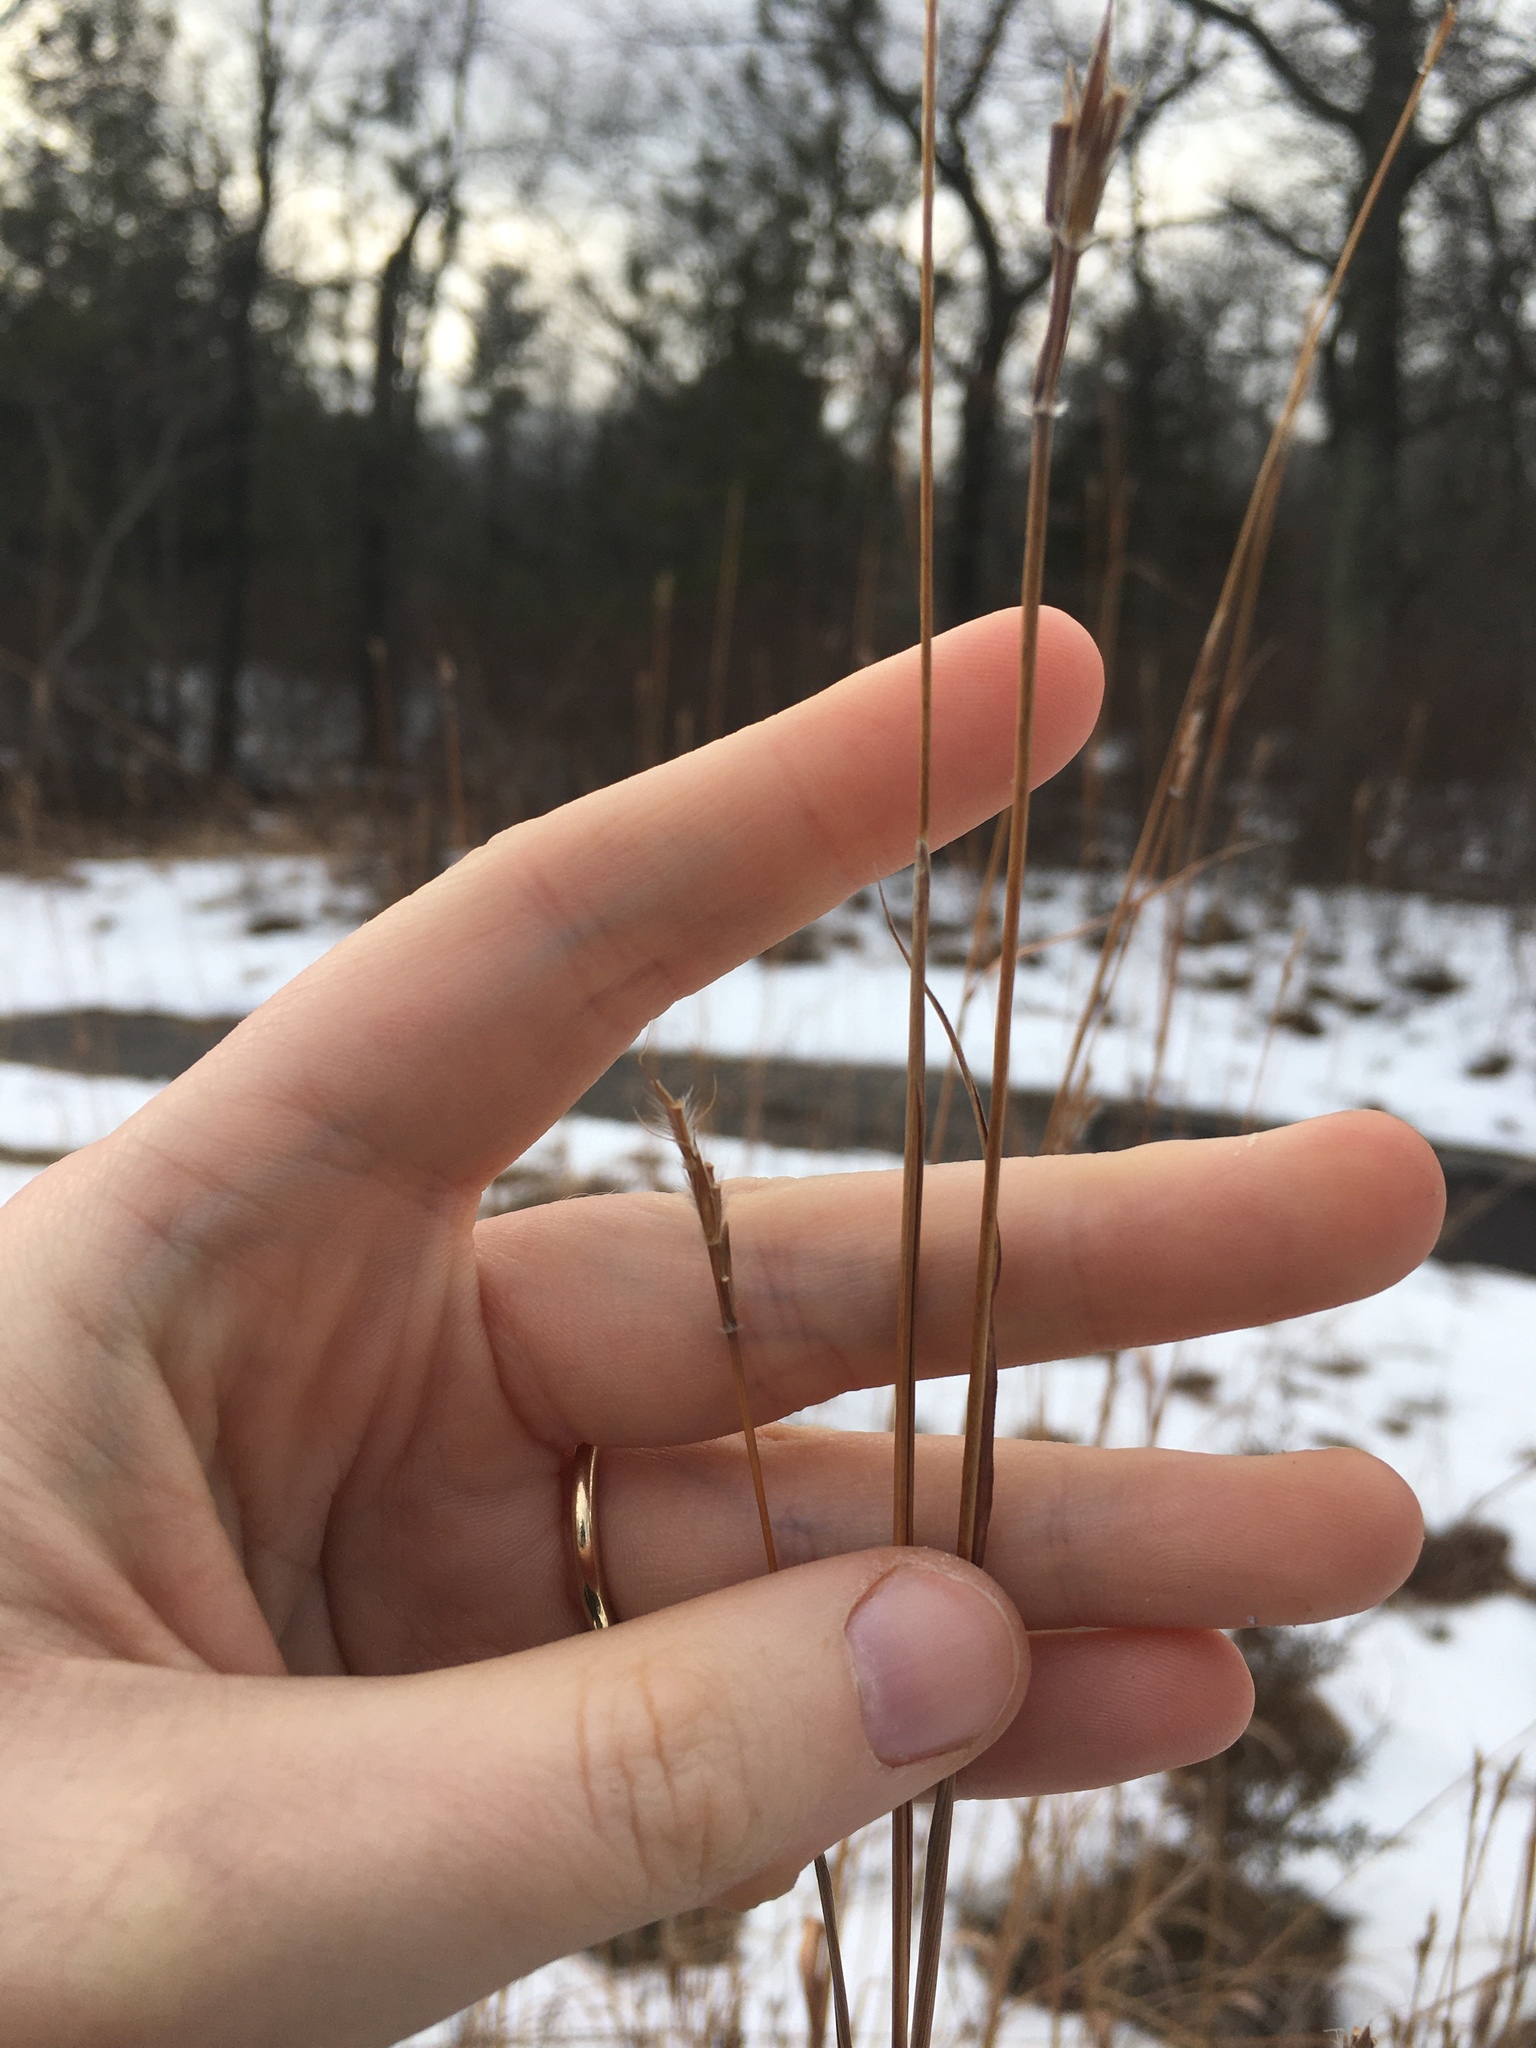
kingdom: Plantae
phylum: Tracheophyta
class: Liliopsida
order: Poales
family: Poaceae
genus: Andropogon
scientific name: Andropogon gerardi
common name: Big bluestem
